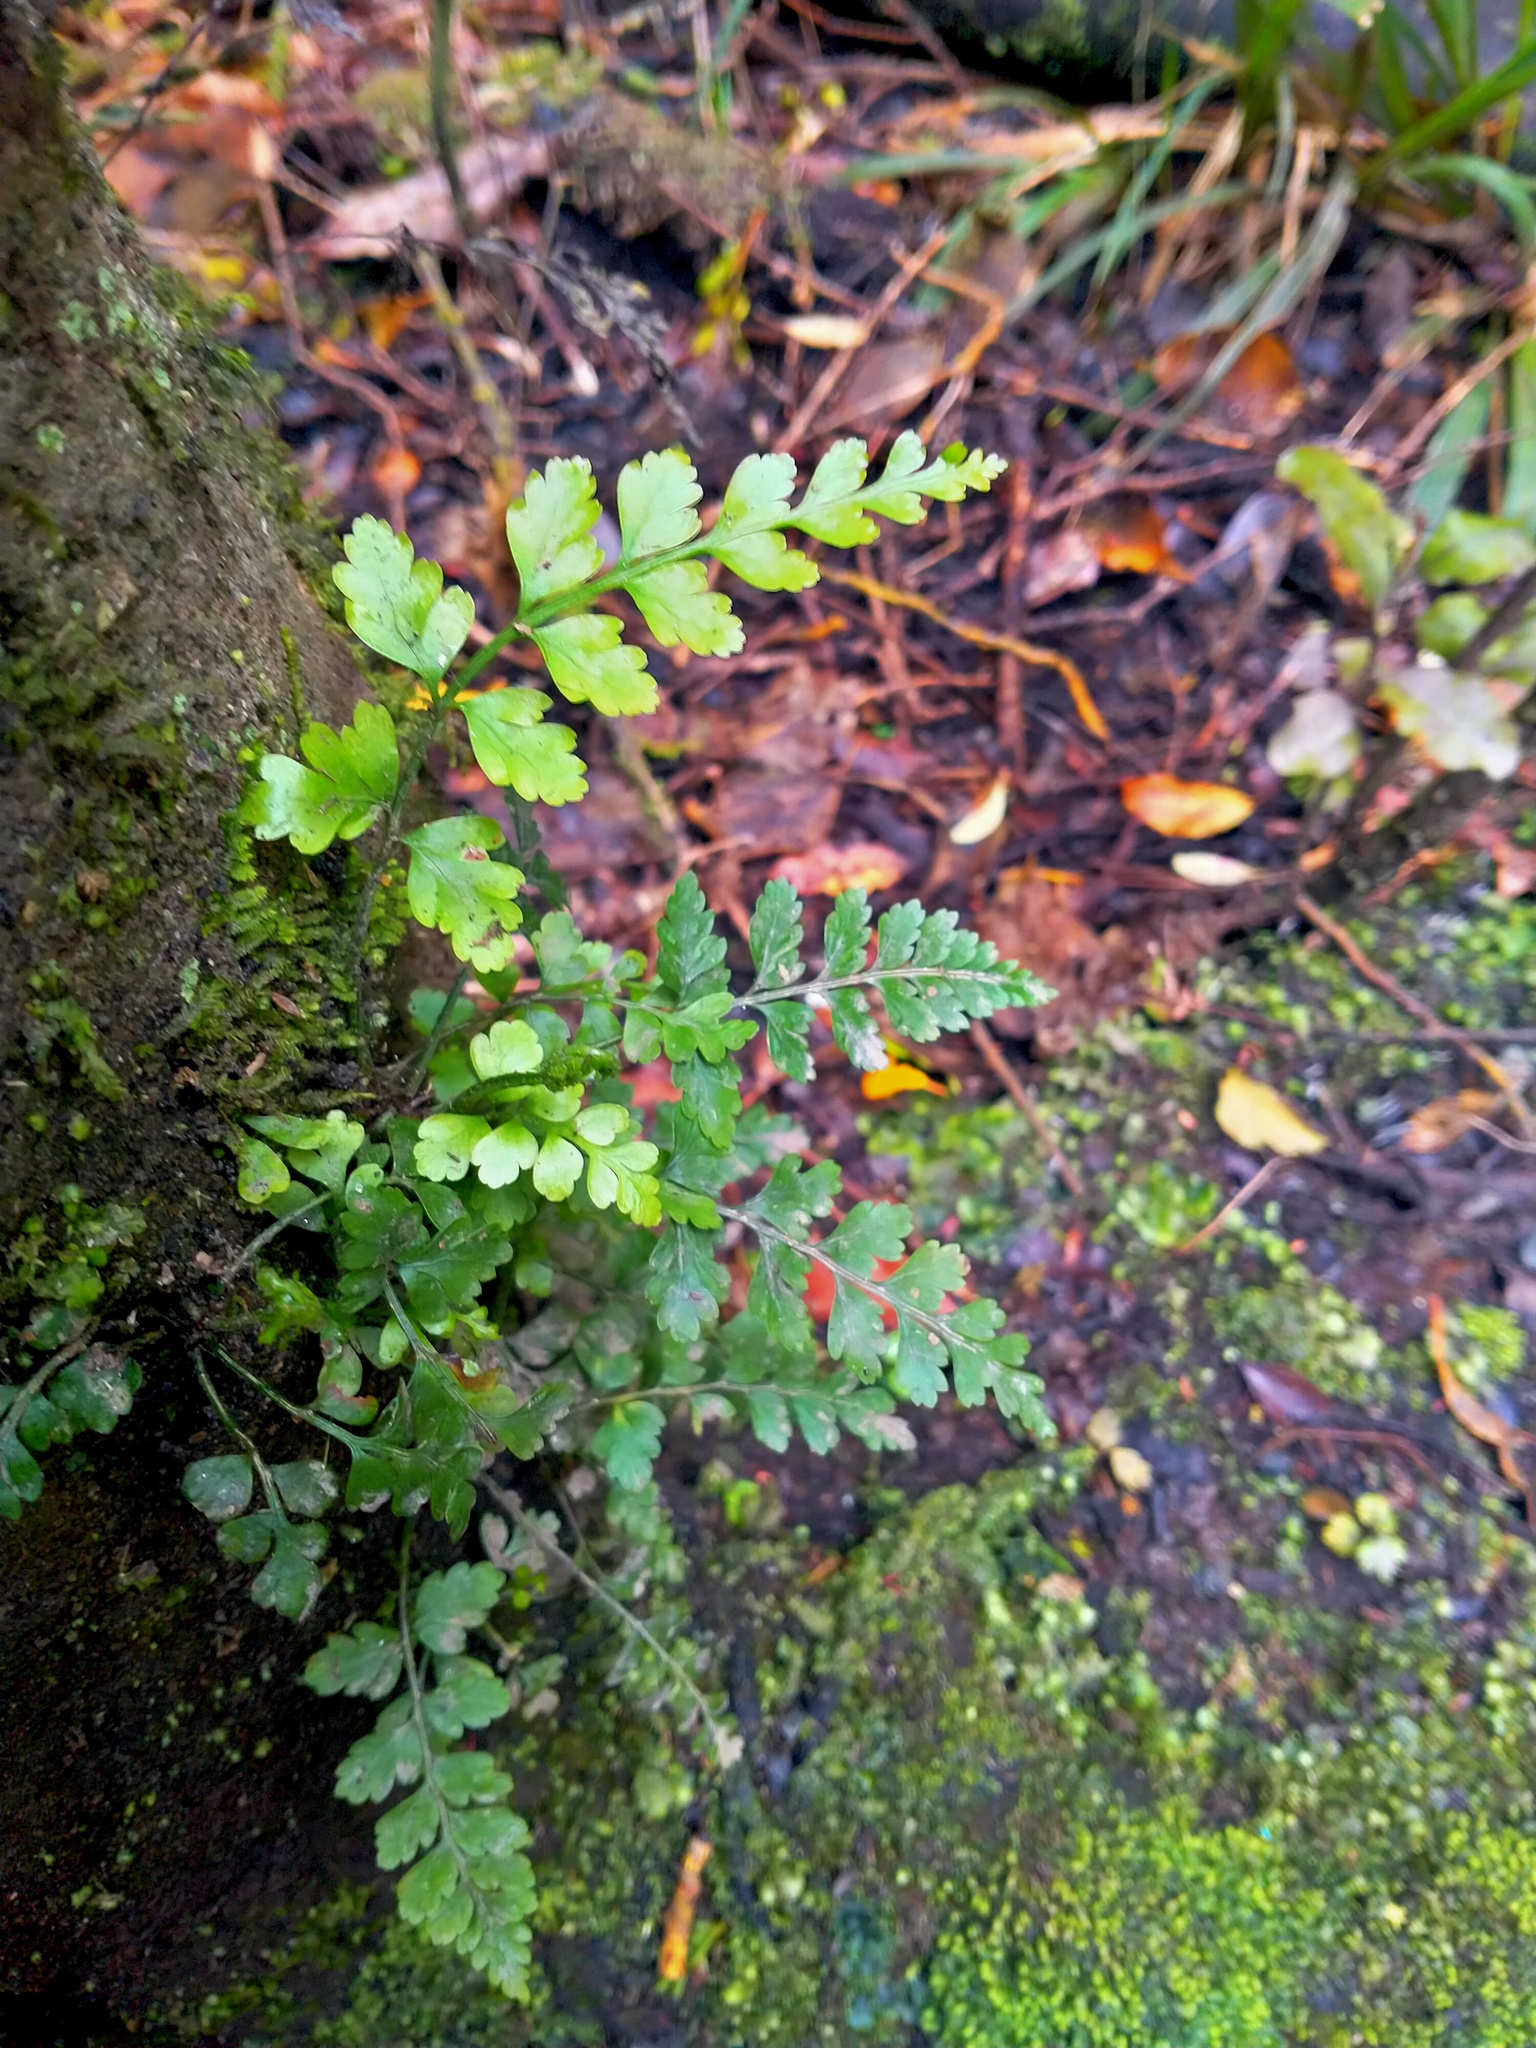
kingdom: Plantae
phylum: Tracheophyta
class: Polypodiopsida
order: Polypodiales
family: Aspleniaceae
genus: Asplenium
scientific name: Asplenium
